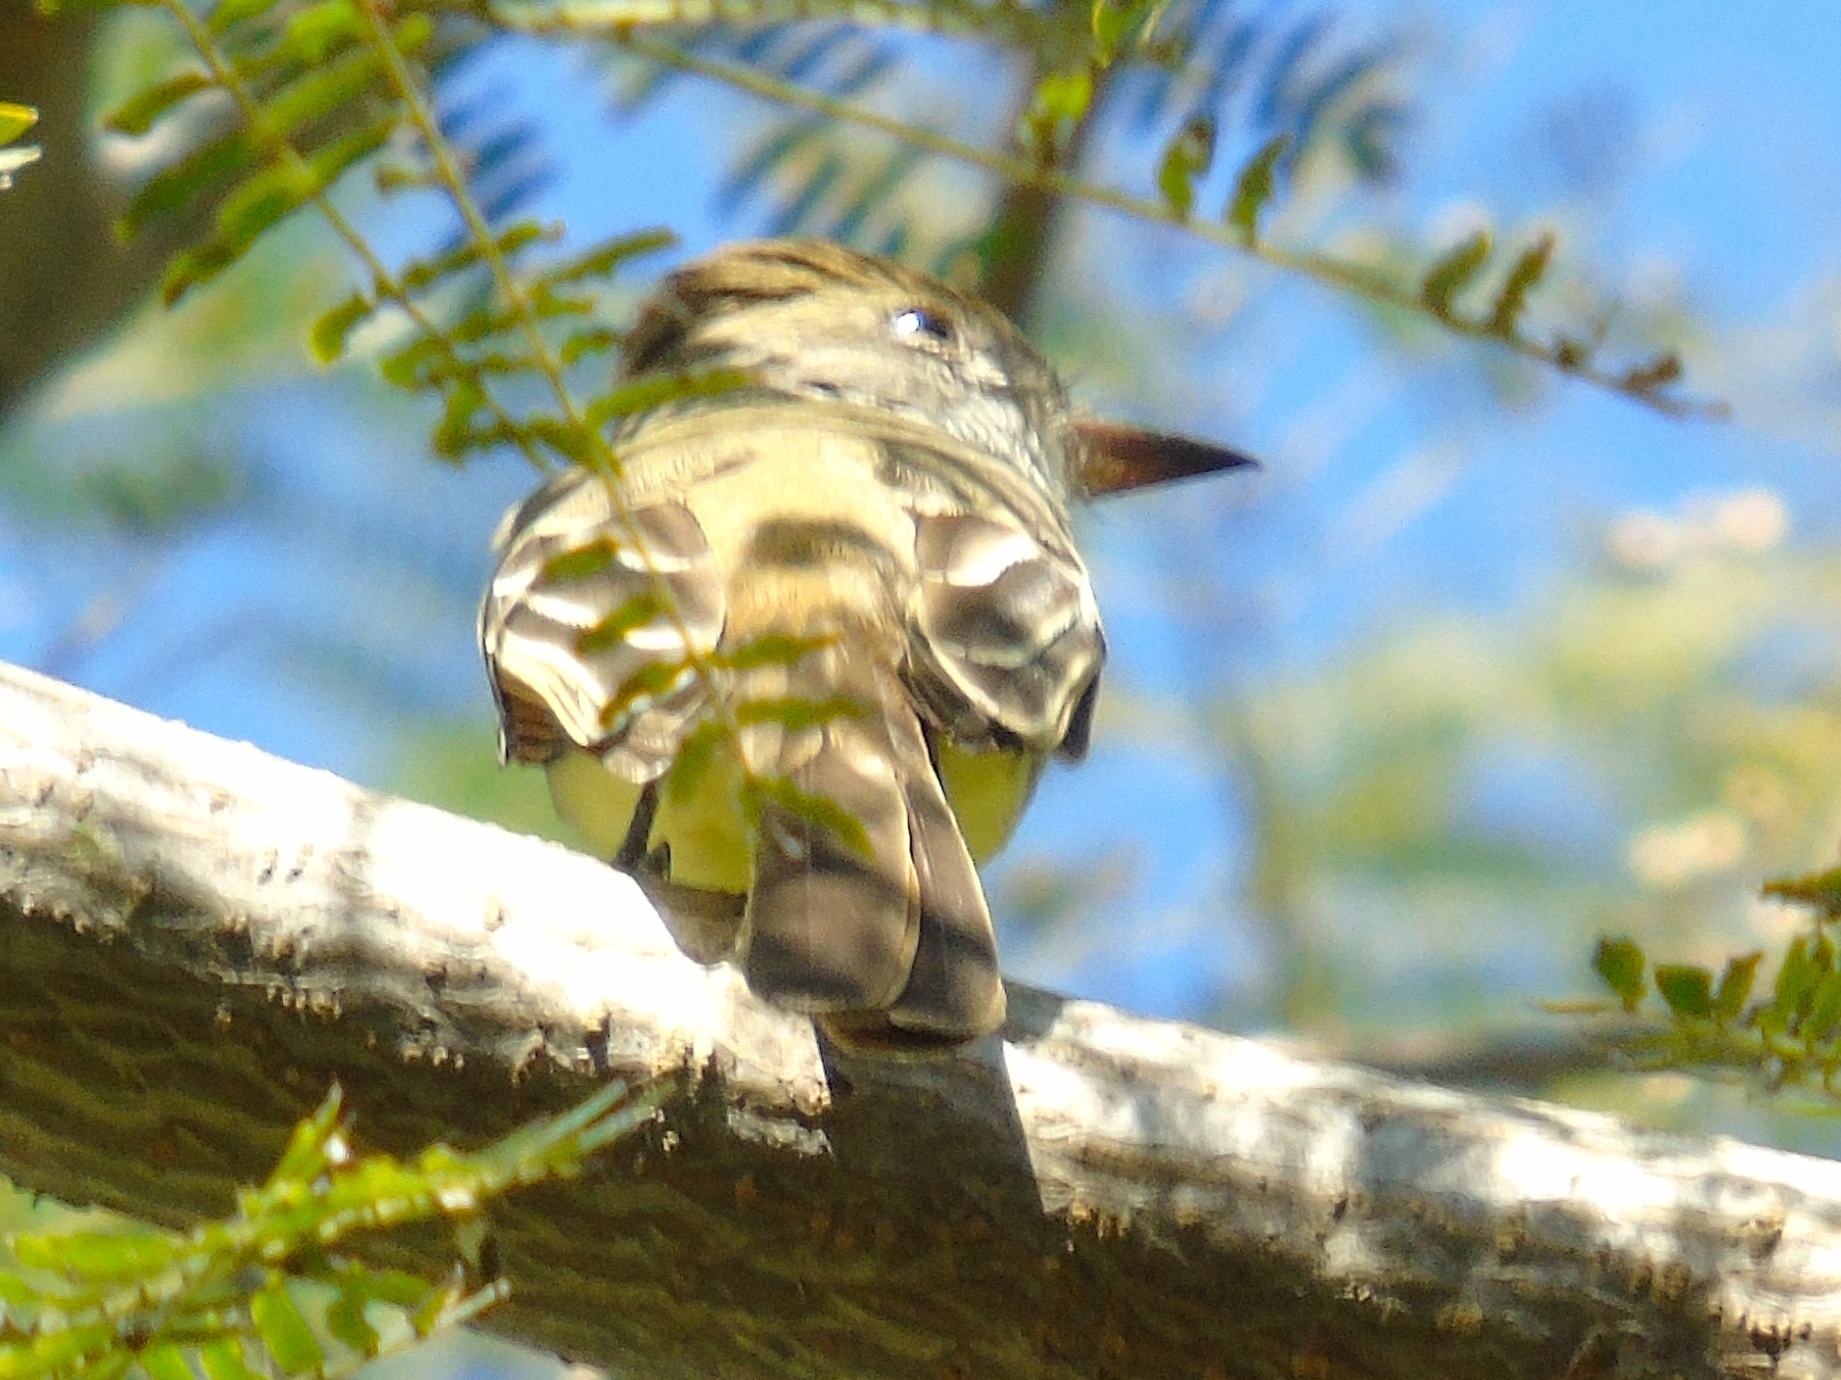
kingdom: Animalia
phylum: Chordata
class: Aves
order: Passeriformes
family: Tyrannidae
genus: Myiarchus
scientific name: Myiarchus
